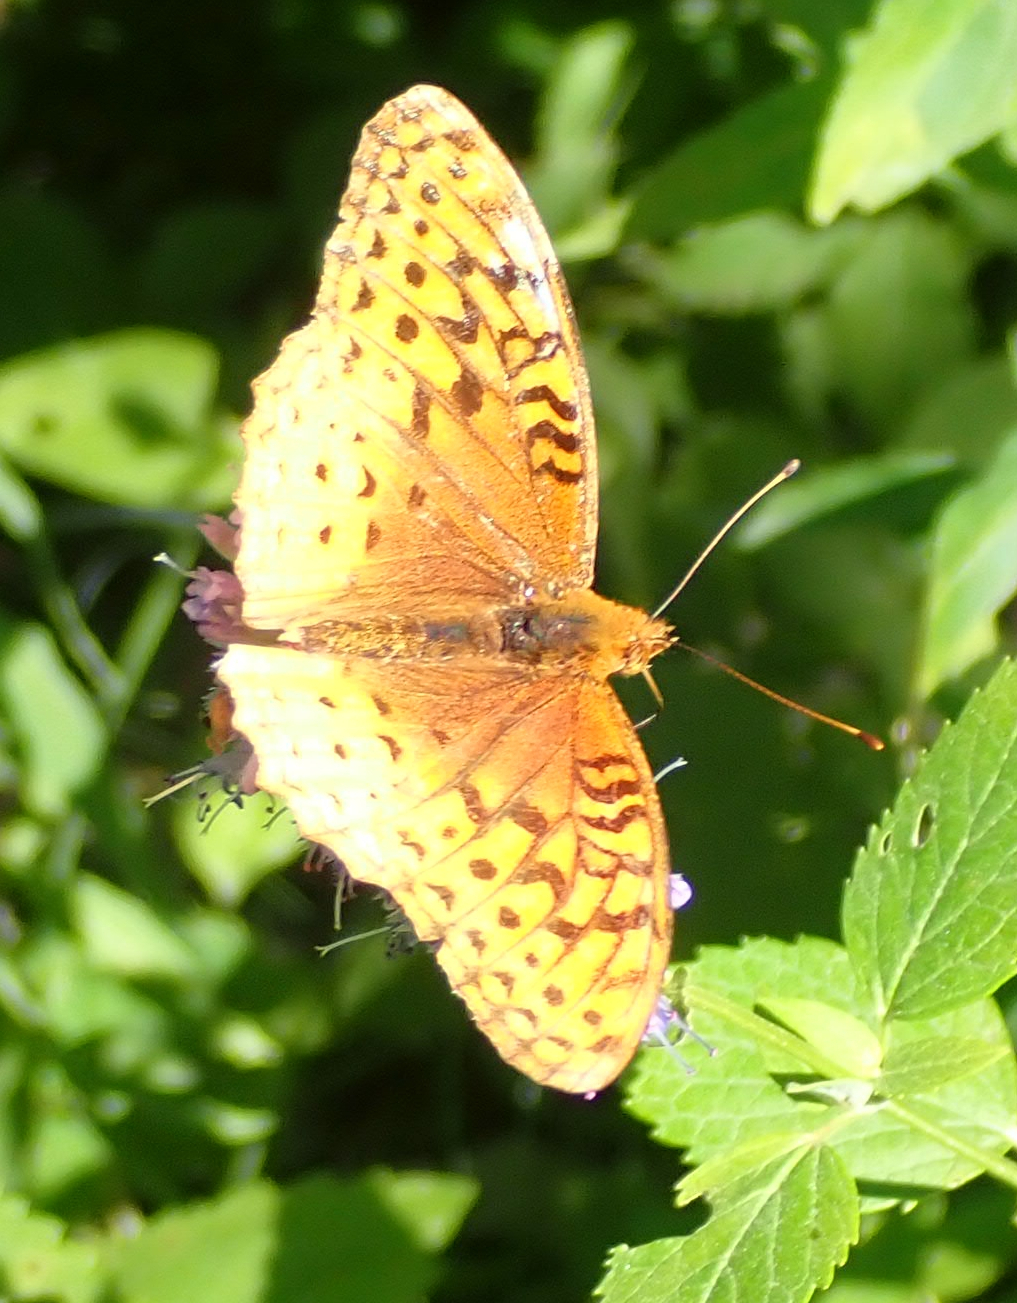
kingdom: Animalia
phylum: Arthropoda
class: Insecta
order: Lepidoptera
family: Nymphalidae
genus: Speyeria
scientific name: Speyeria cybele
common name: Great spangled fritillary
